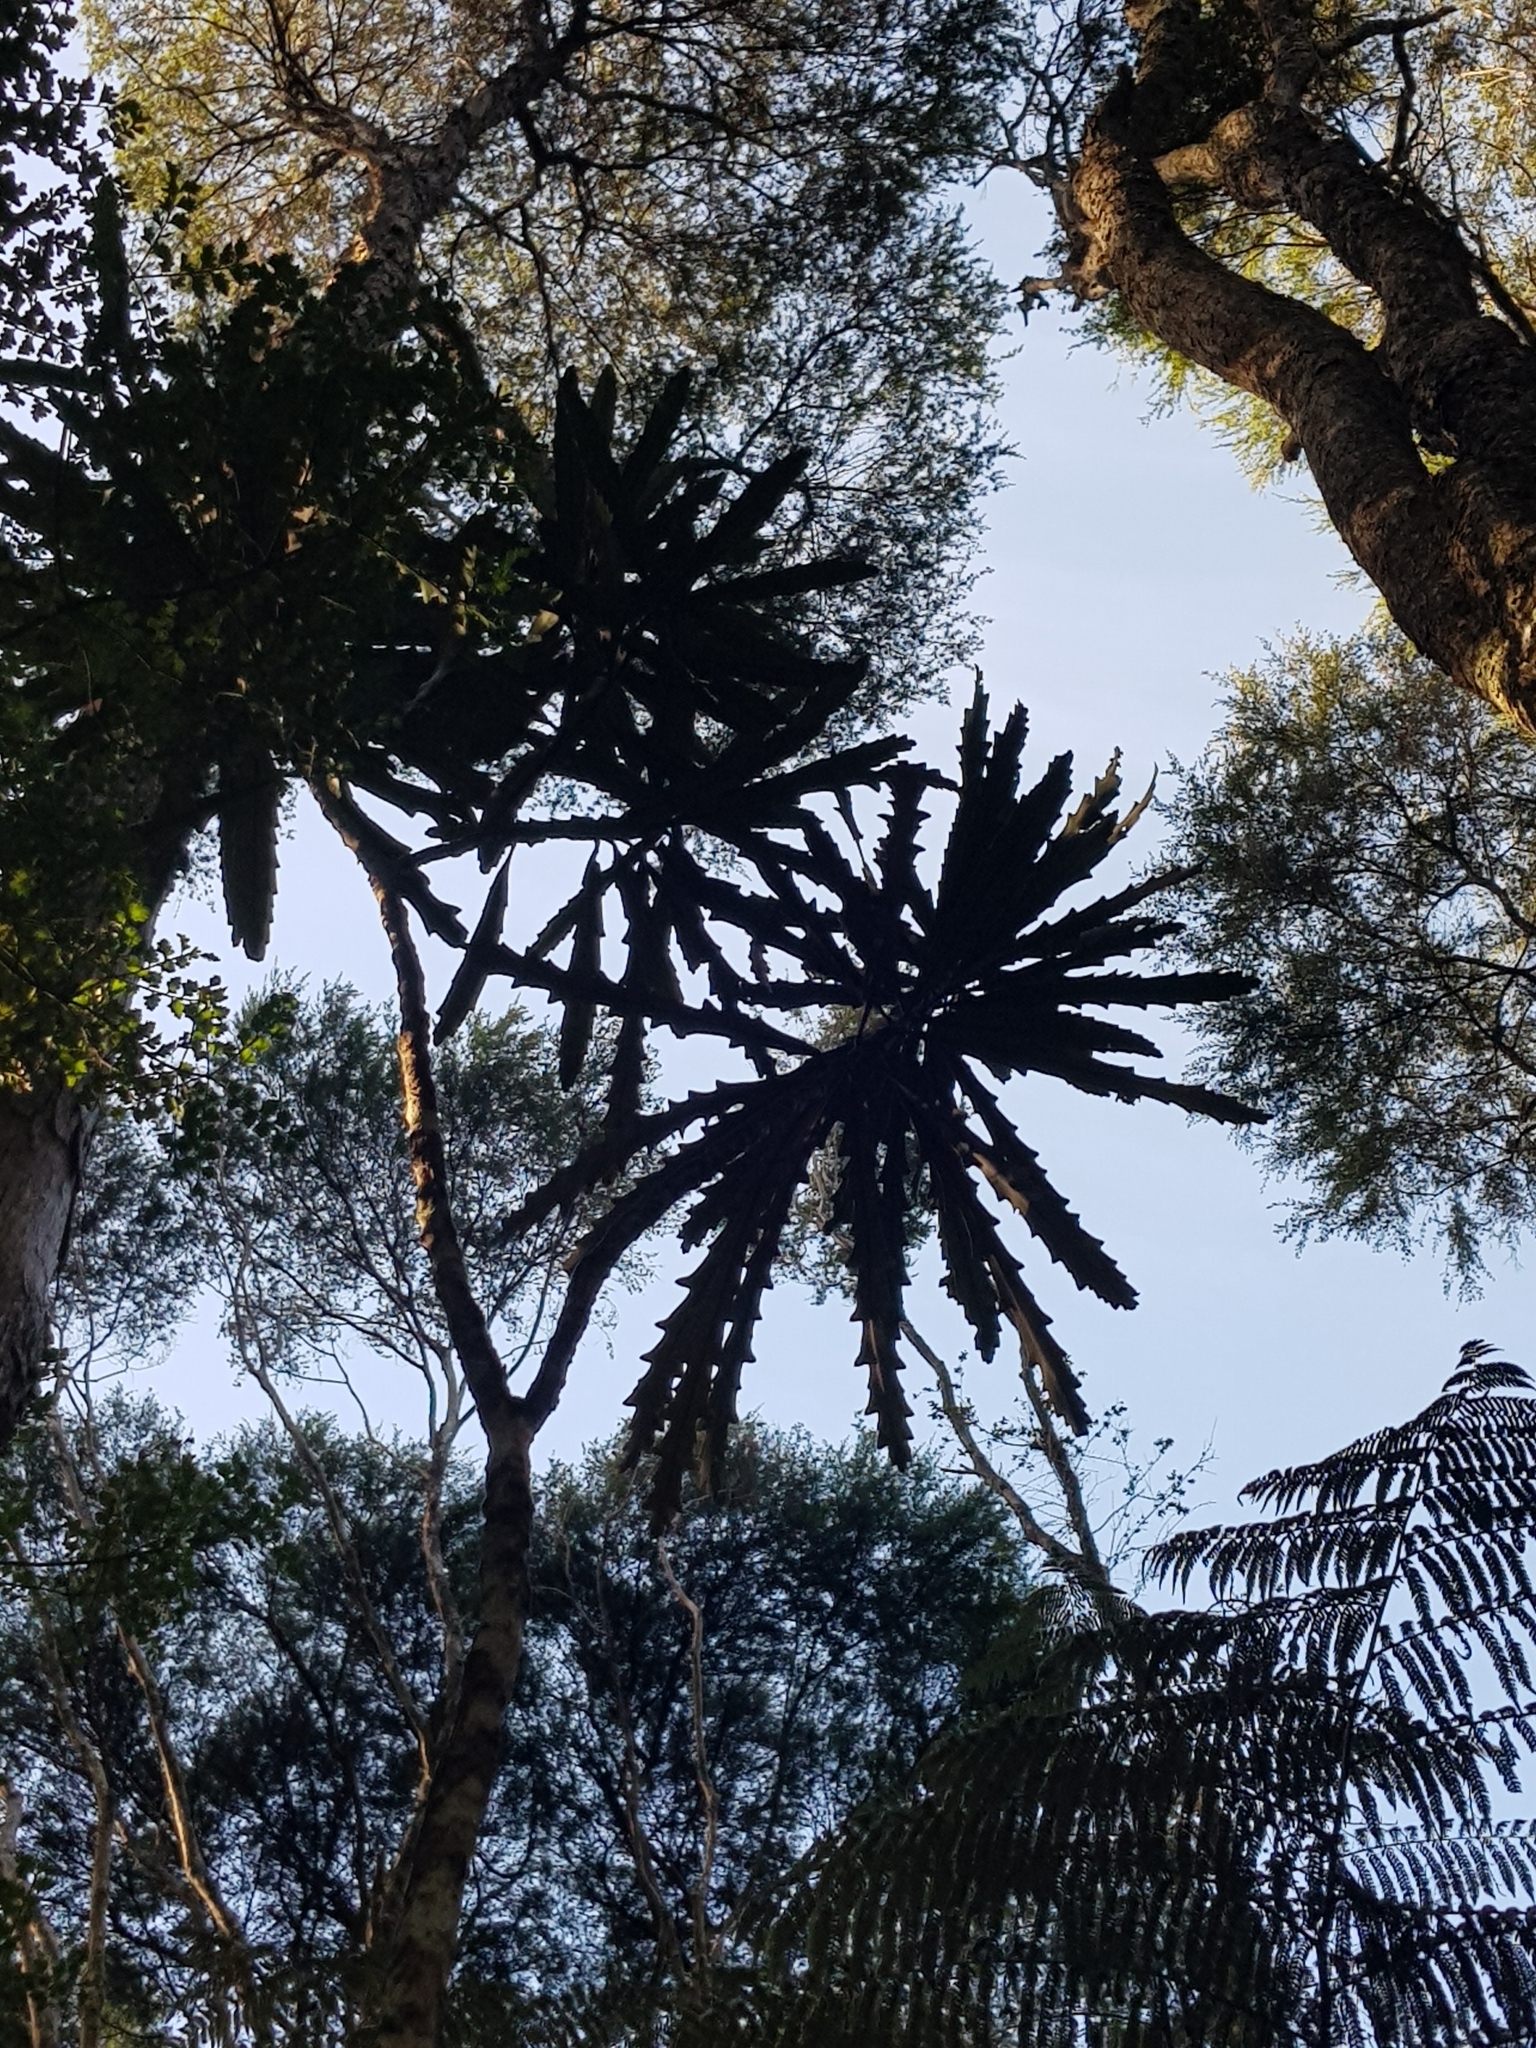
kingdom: Plantae
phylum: Tracheophyta
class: Magnoliopsida
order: Apiales
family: Araliaceae
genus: Pseudopanax
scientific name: Pseudopanax crassifolius
